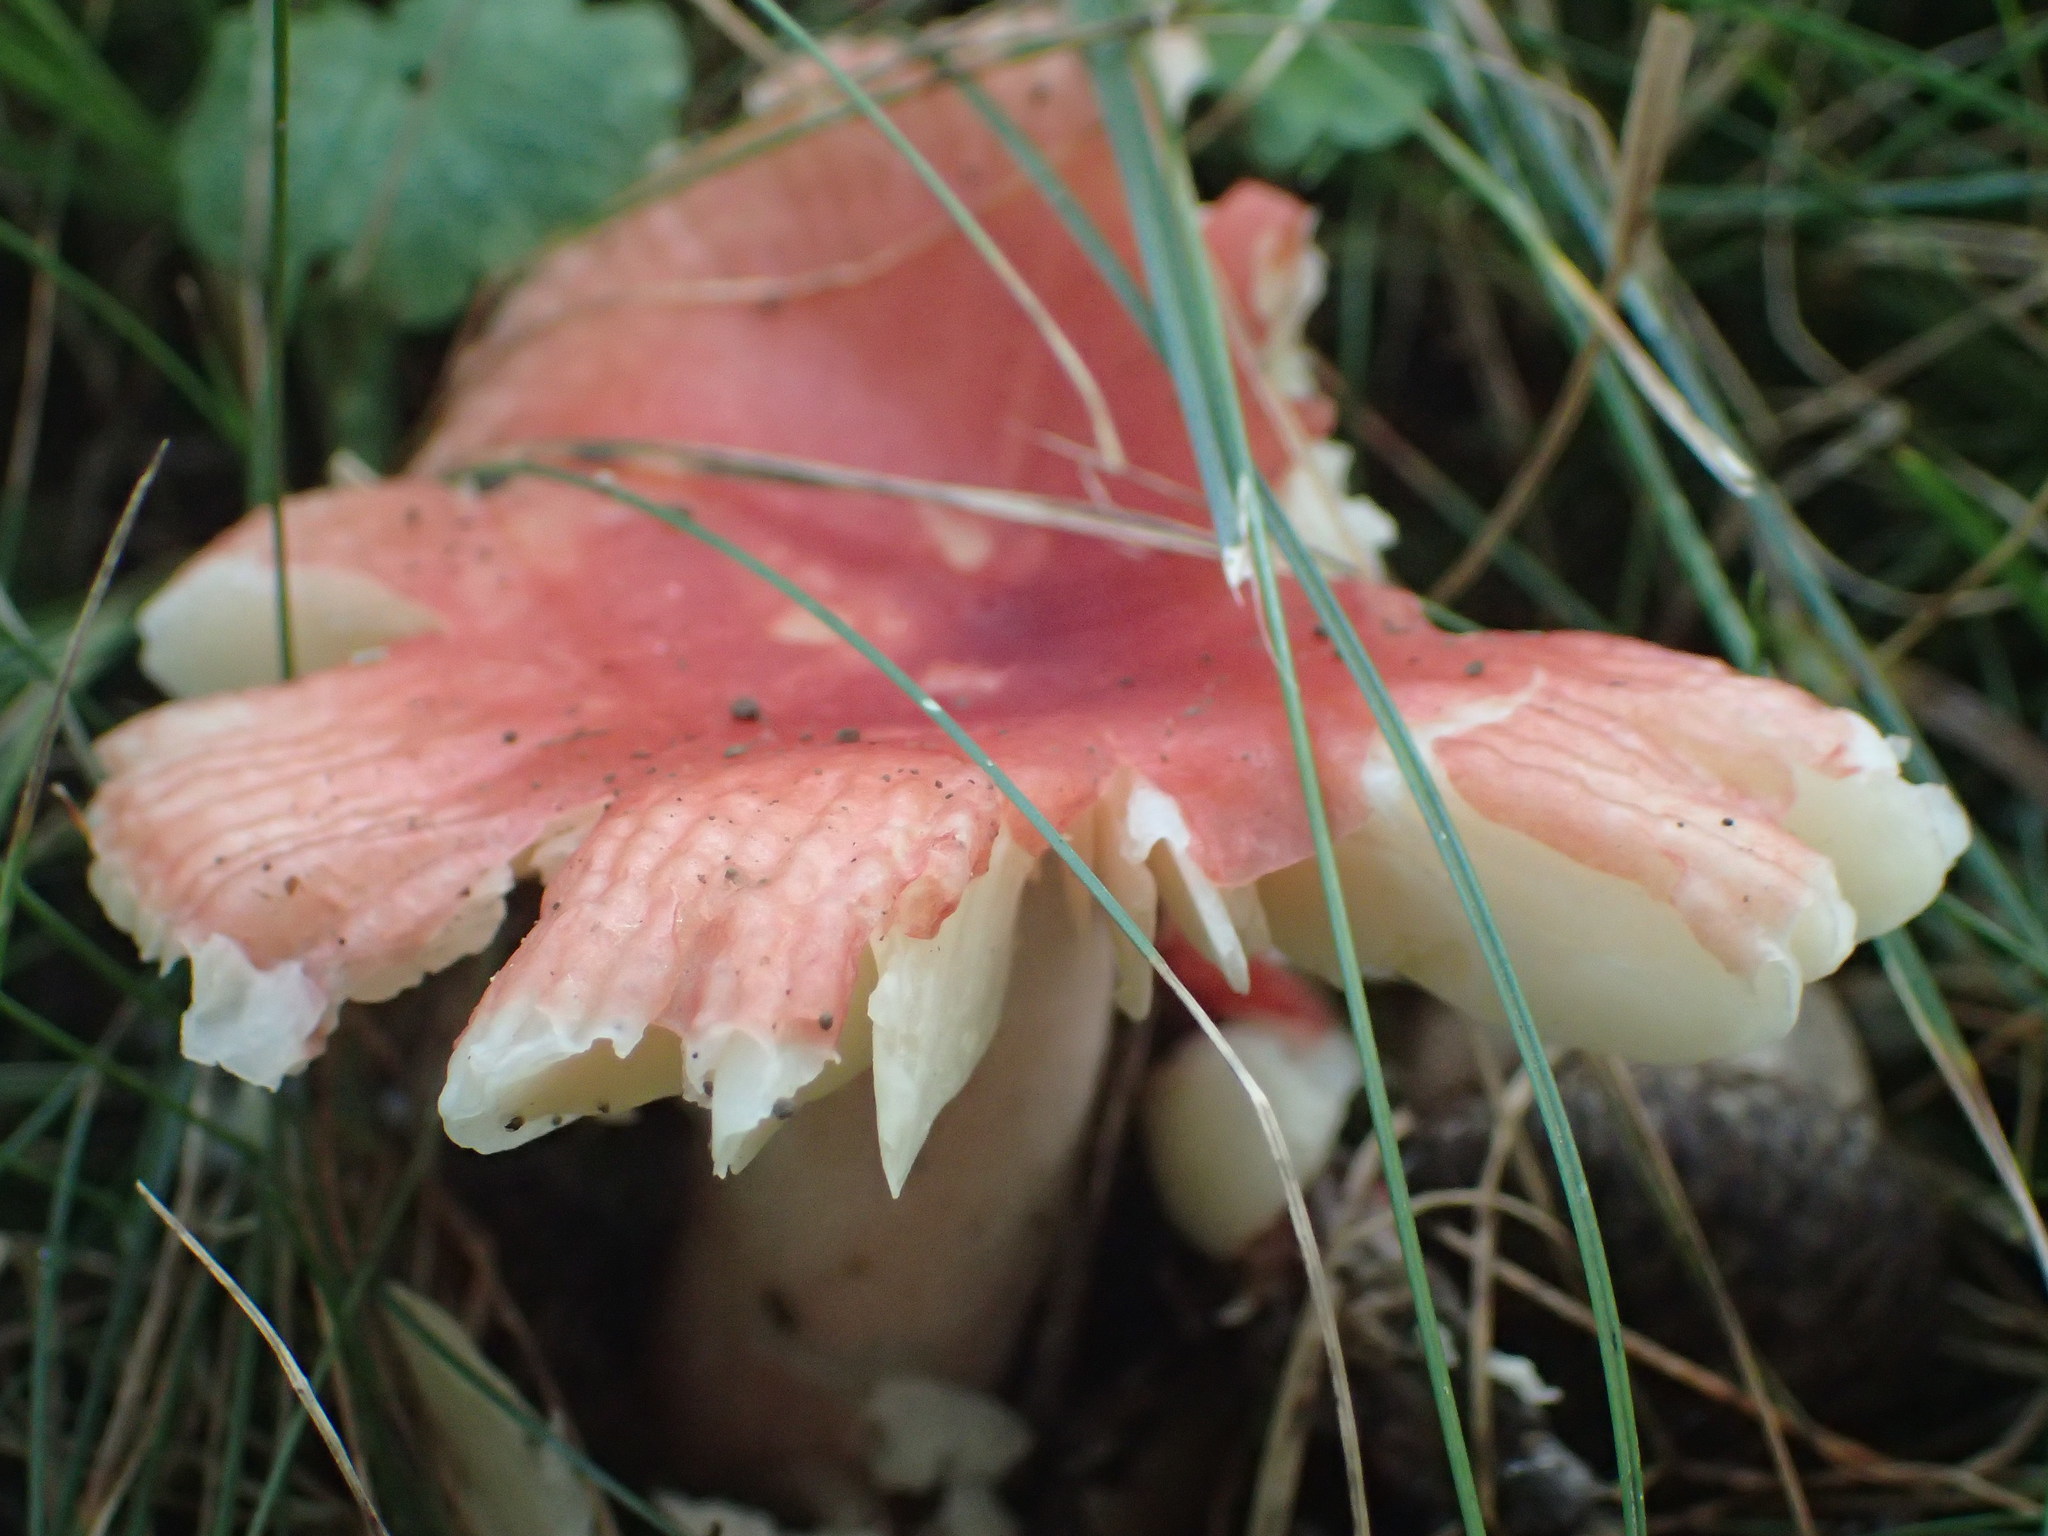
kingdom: Fungi
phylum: Basidiomycota
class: Agaricomycetes
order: Russulales
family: Russulaceae
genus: Russula
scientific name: Russula
